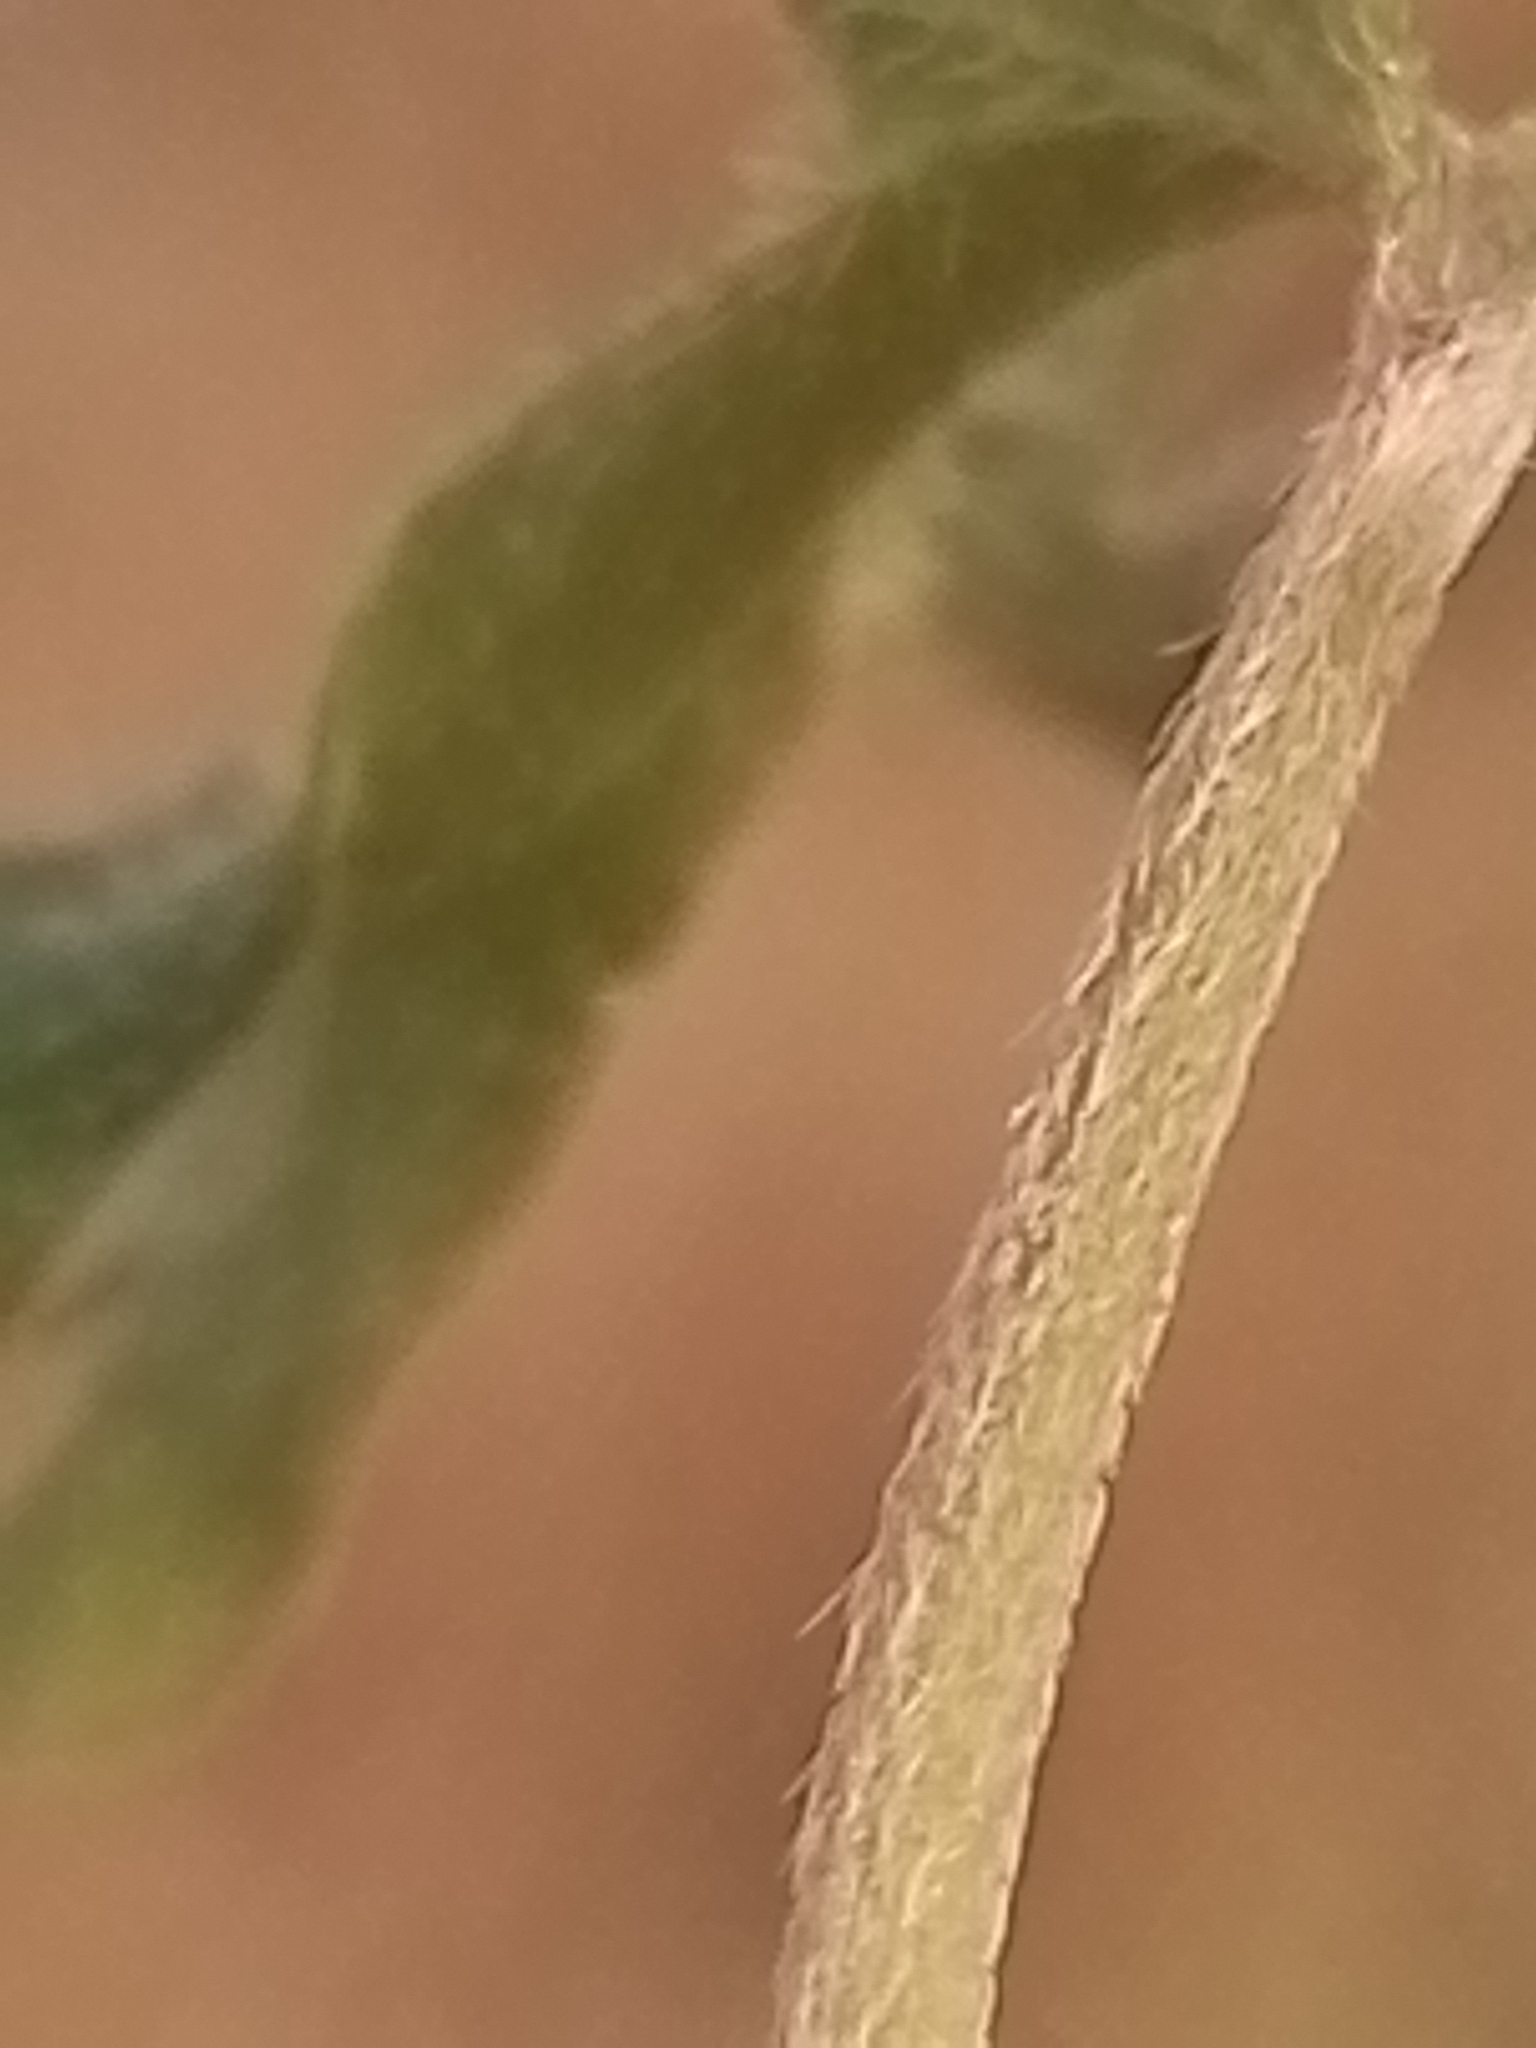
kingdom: Plantae
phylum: Tracheophyta
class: Magnoliopsida
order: Geraniales
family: Geraniaceae
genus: Geranium
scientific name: Geranium retrorsum
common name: New zealand geranium
